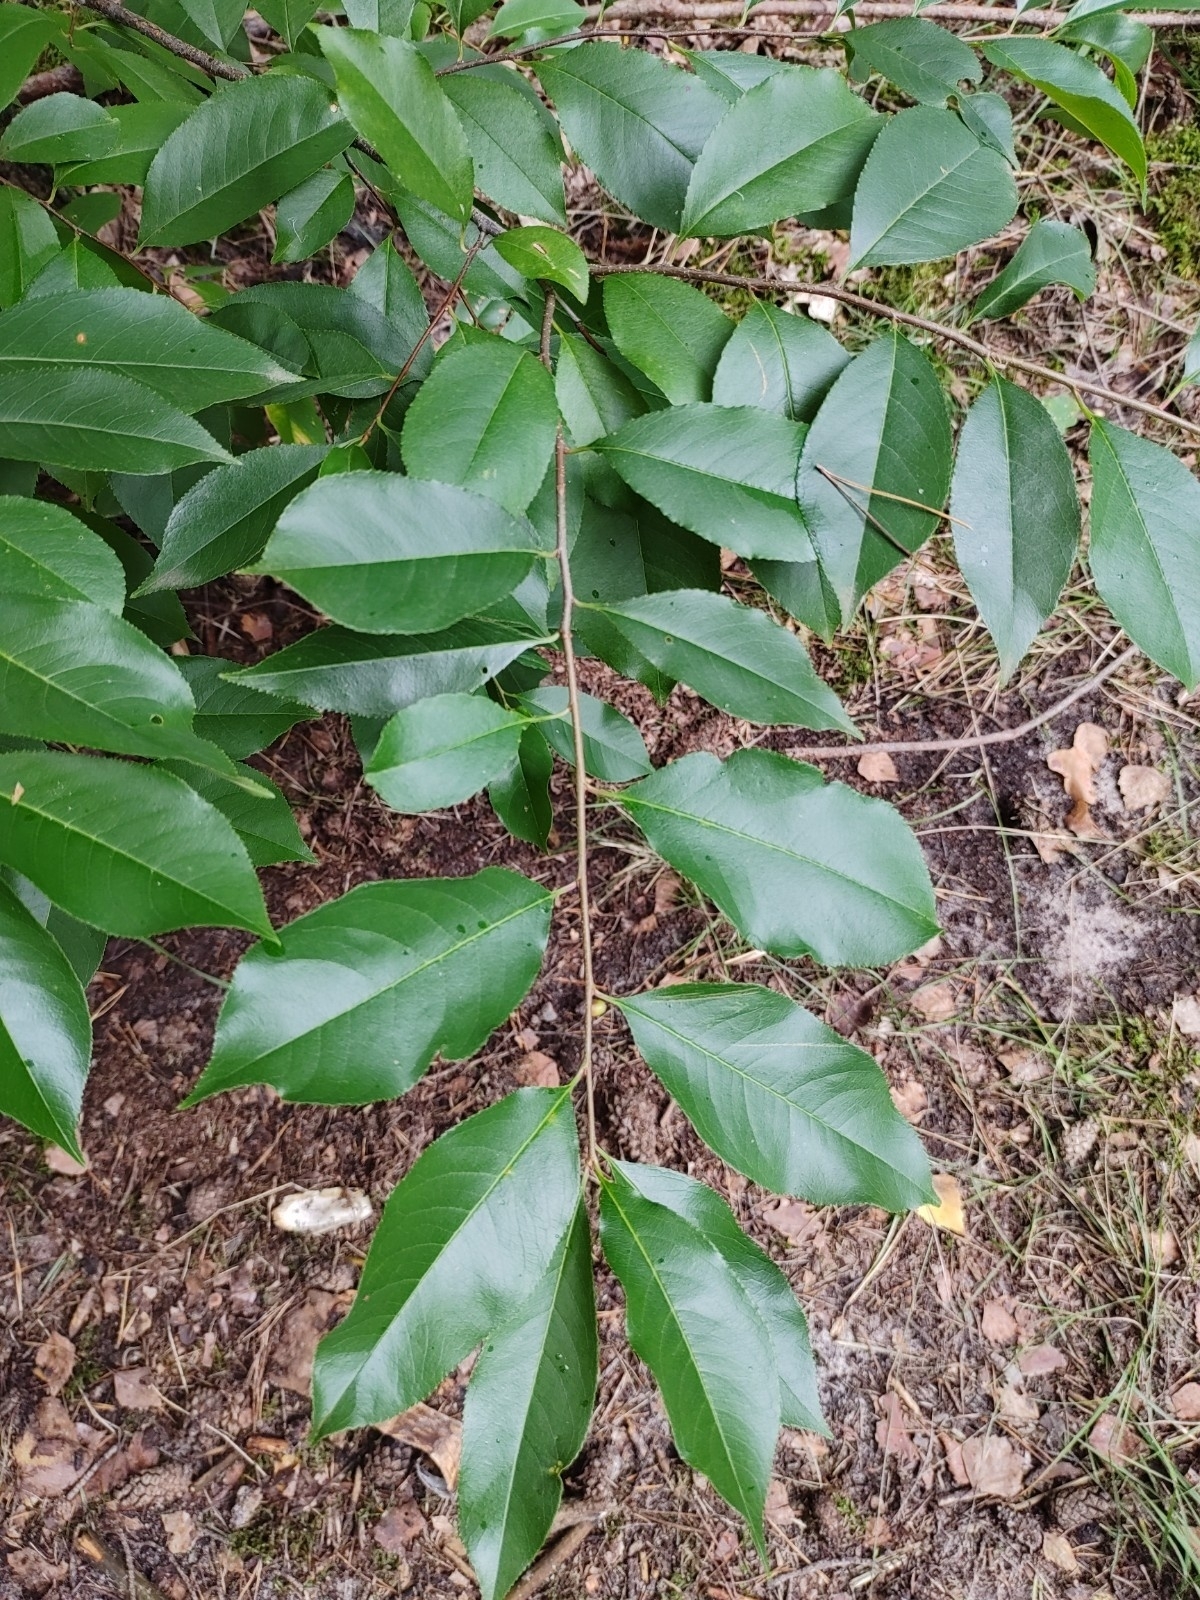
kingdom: Plantae
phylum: Tracheophyta
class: Magnoliopsida
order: Rosales
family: Rosaceae
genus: Prunus
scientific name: Prunus serotina
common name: Black cherry
